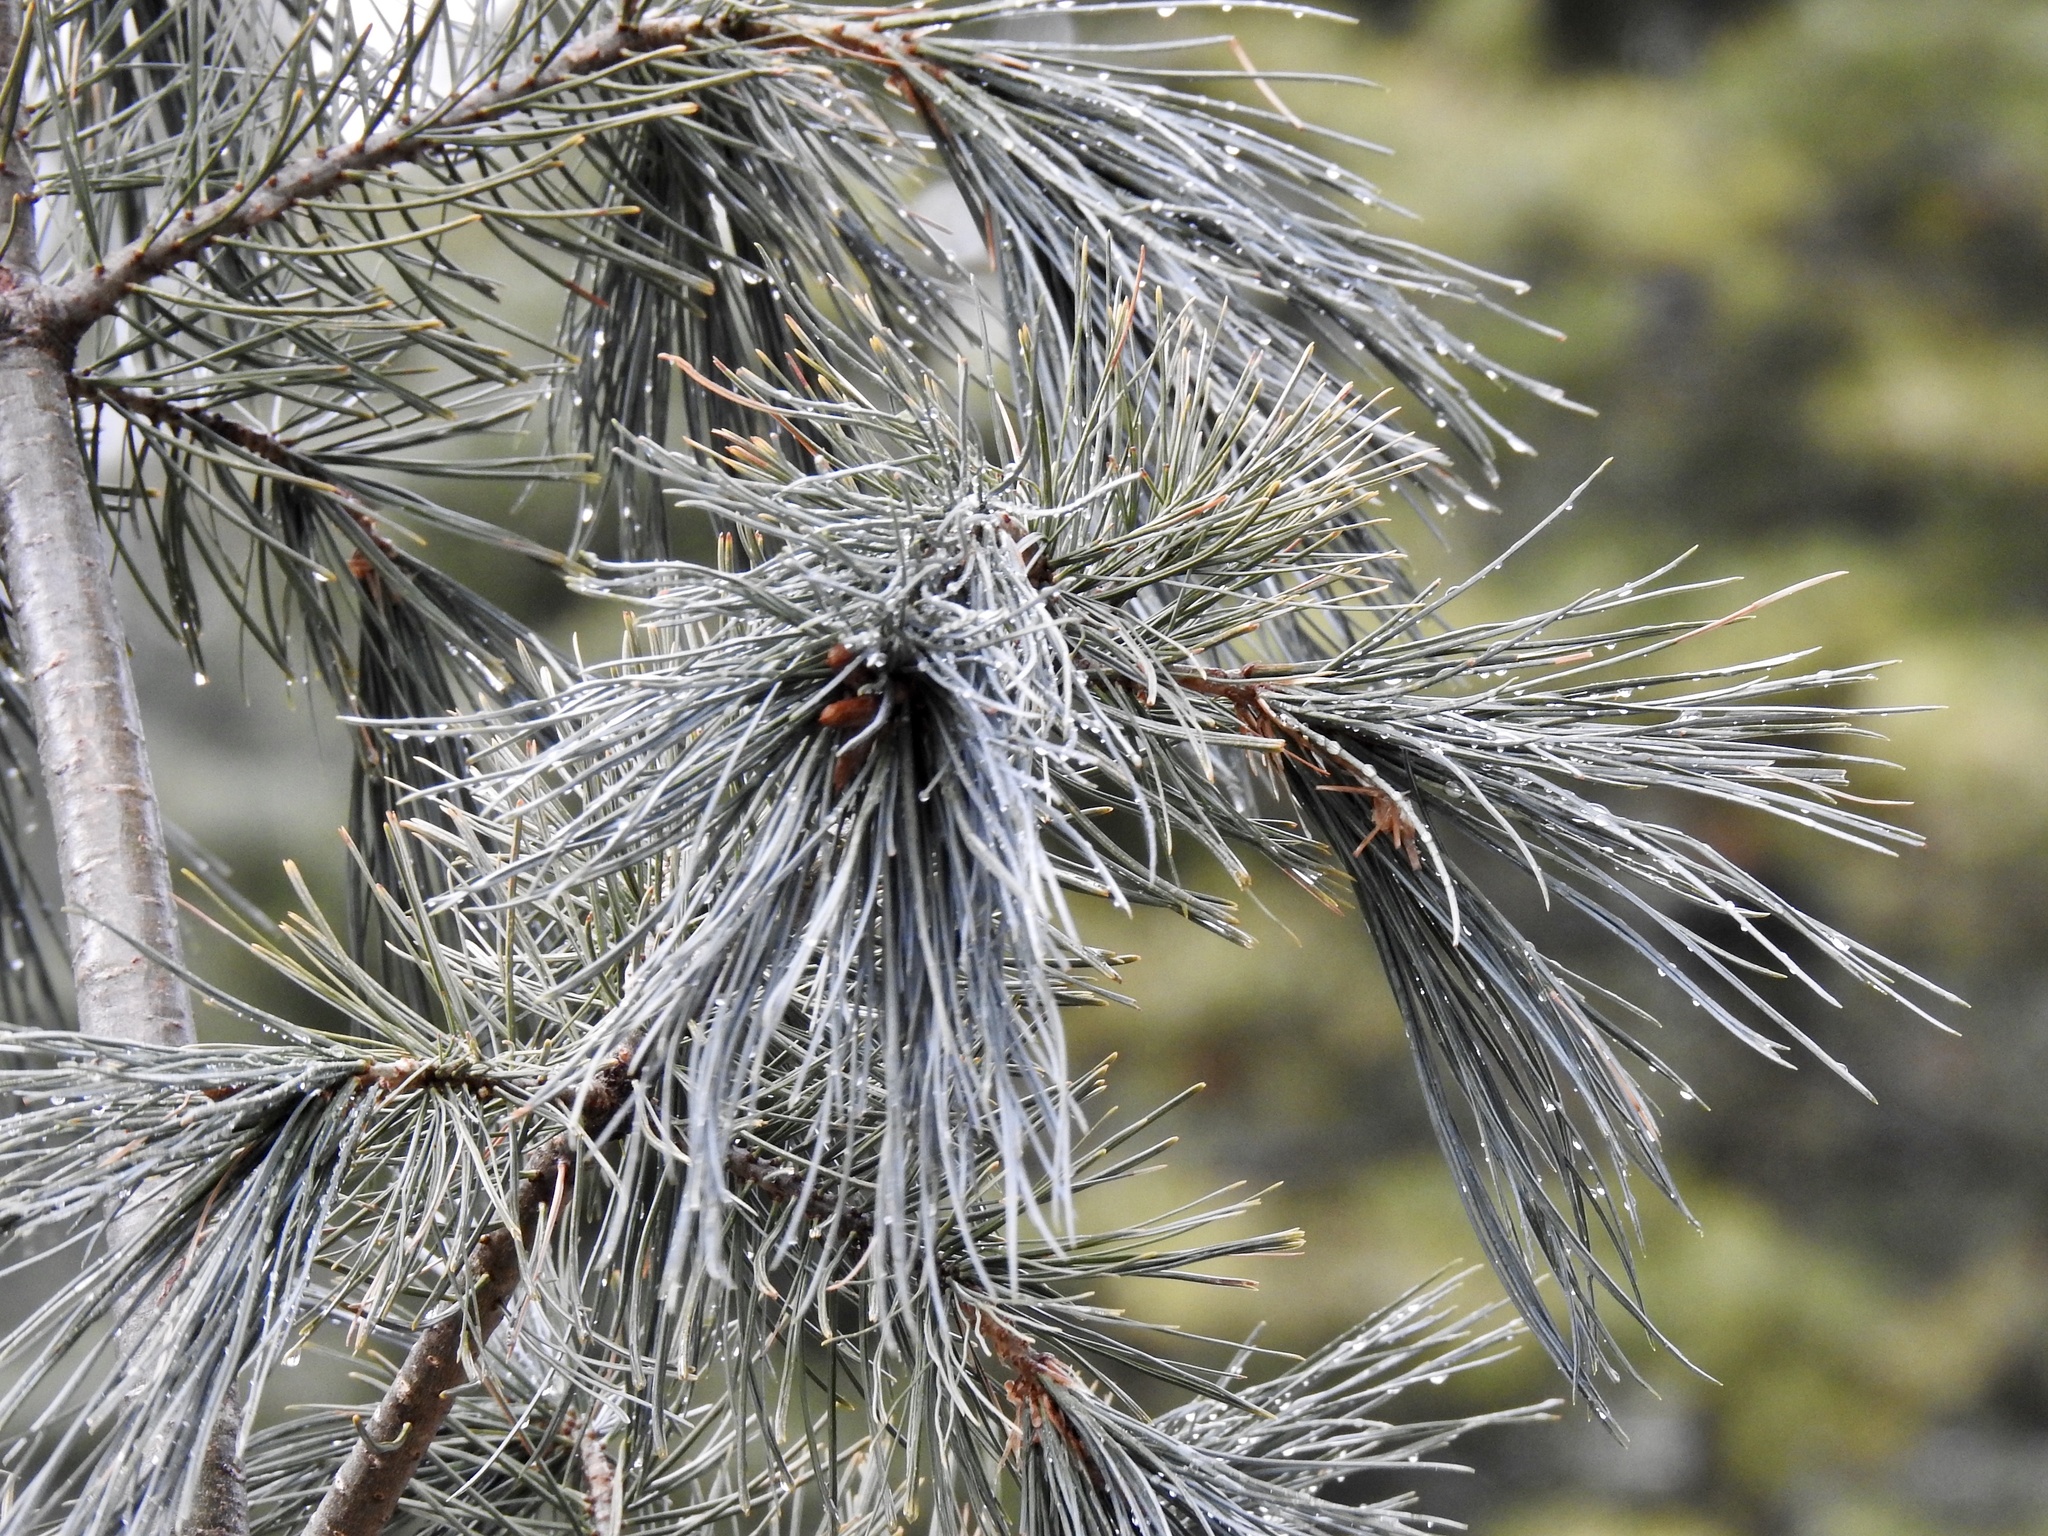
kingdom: Plantae
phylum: Tracheophyta
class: Pinopsida
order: Pinales
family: Pinaceae
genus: Pinus
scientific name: Pinus strobiformis
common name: Southwestern white pine
